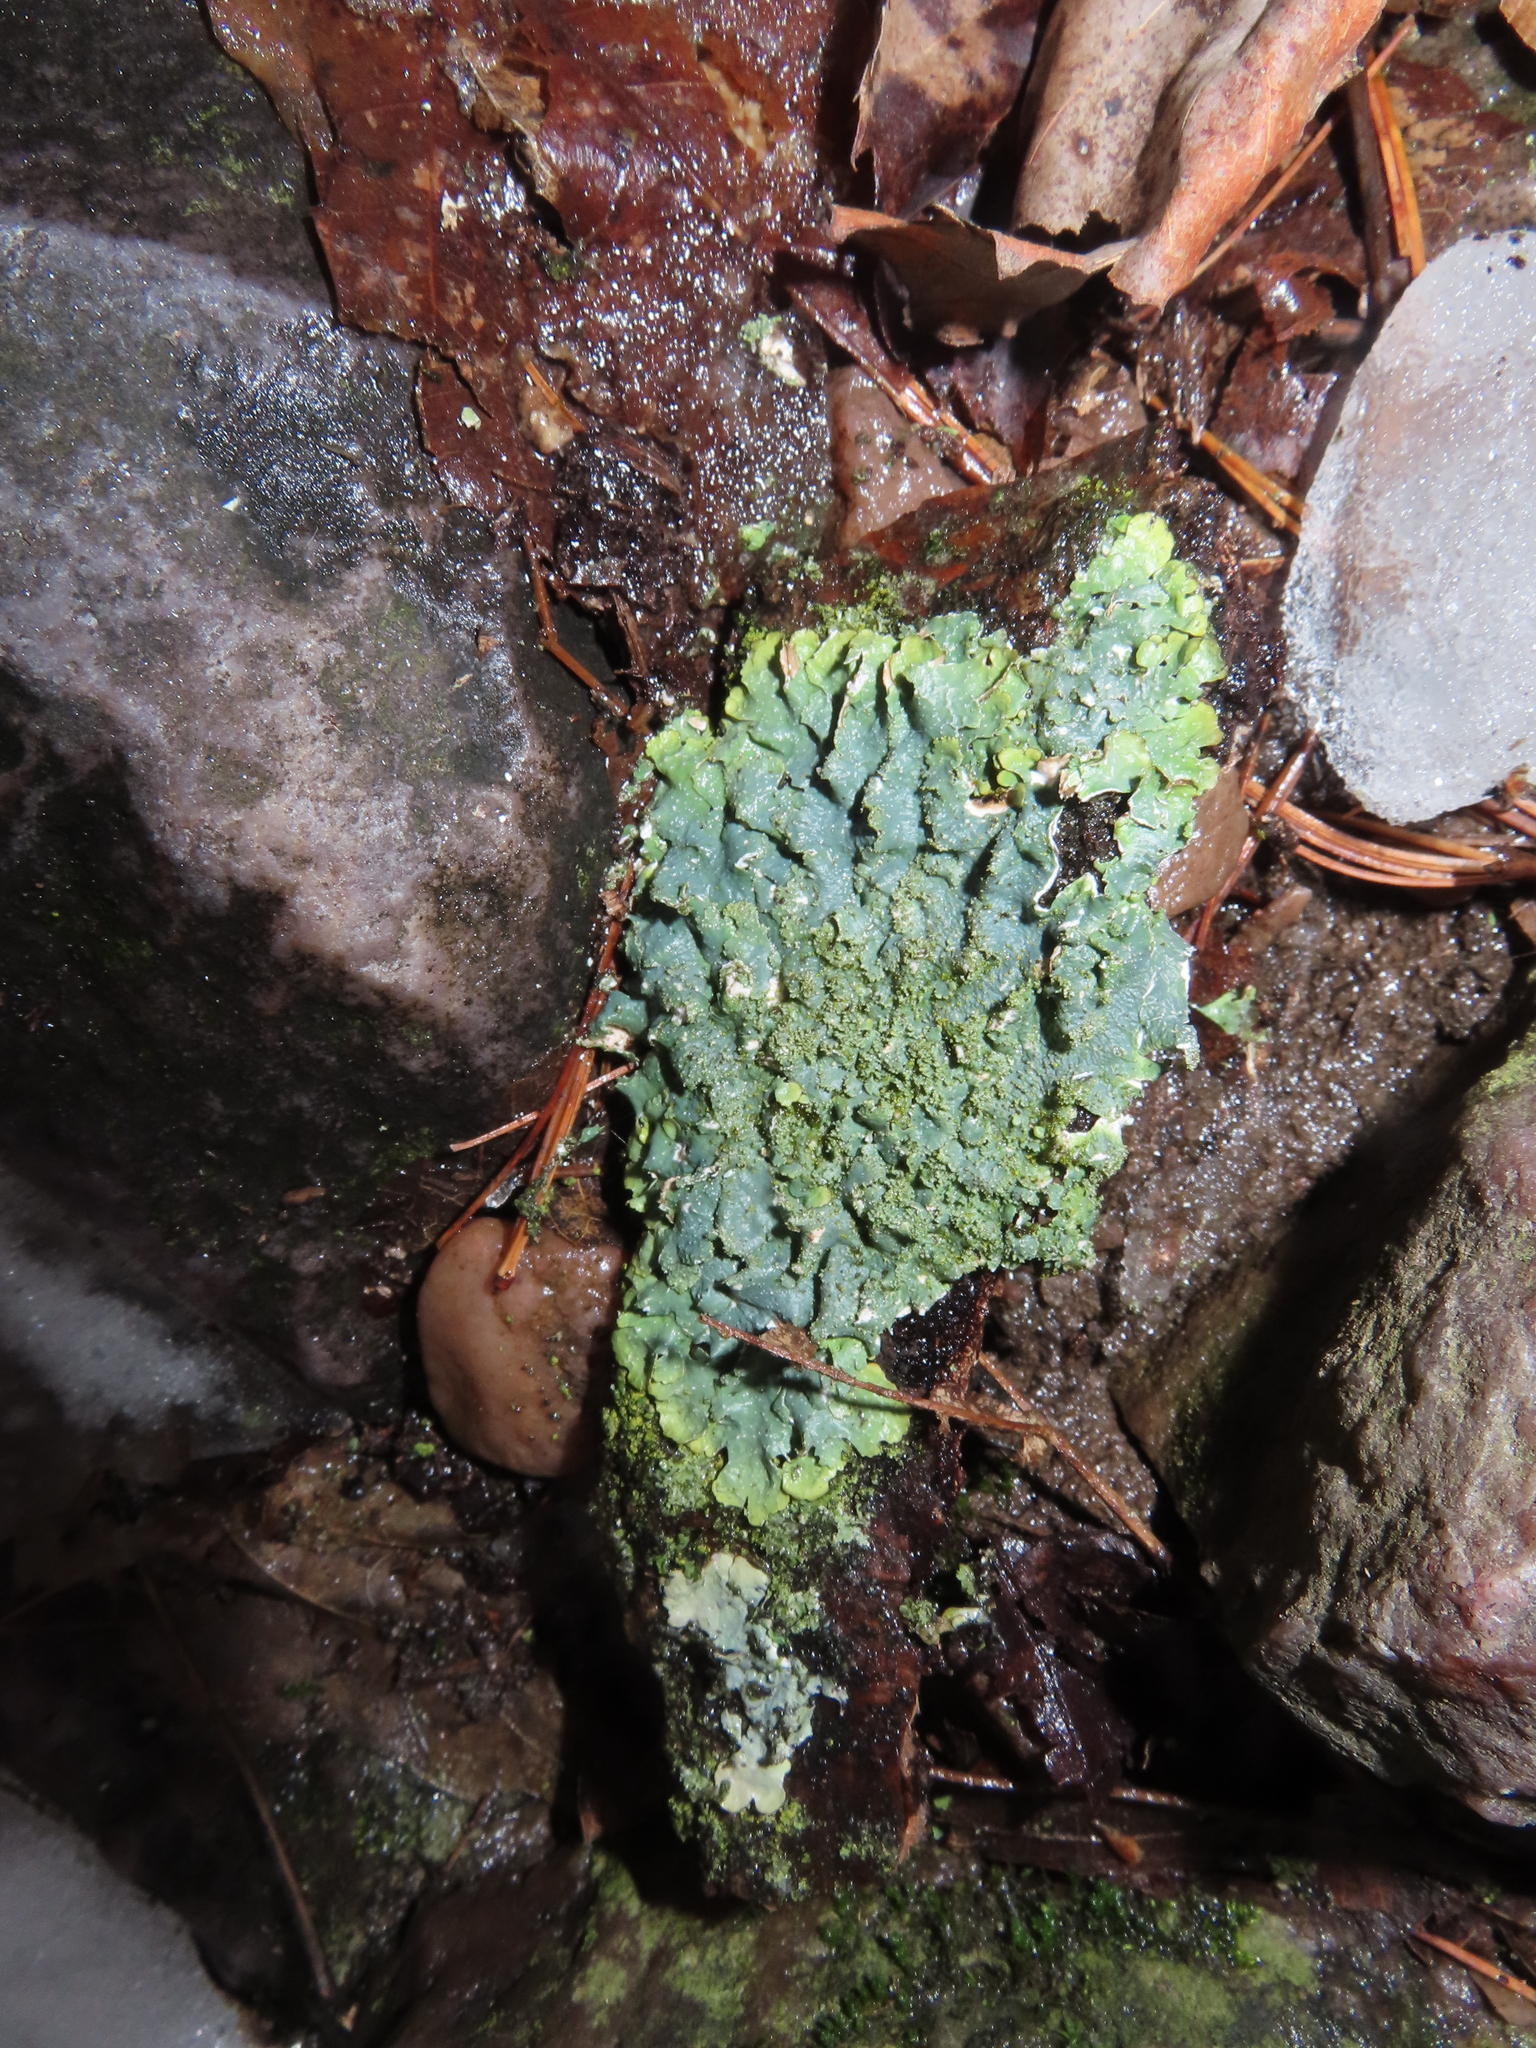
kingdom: Fungi
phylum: Ascomycota
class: Lecanoromycetes
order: Lecanorales
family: Parmeliaceae
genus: Punctelia
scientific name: Punctelia rudecta
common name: Rough speckled shield lichen
